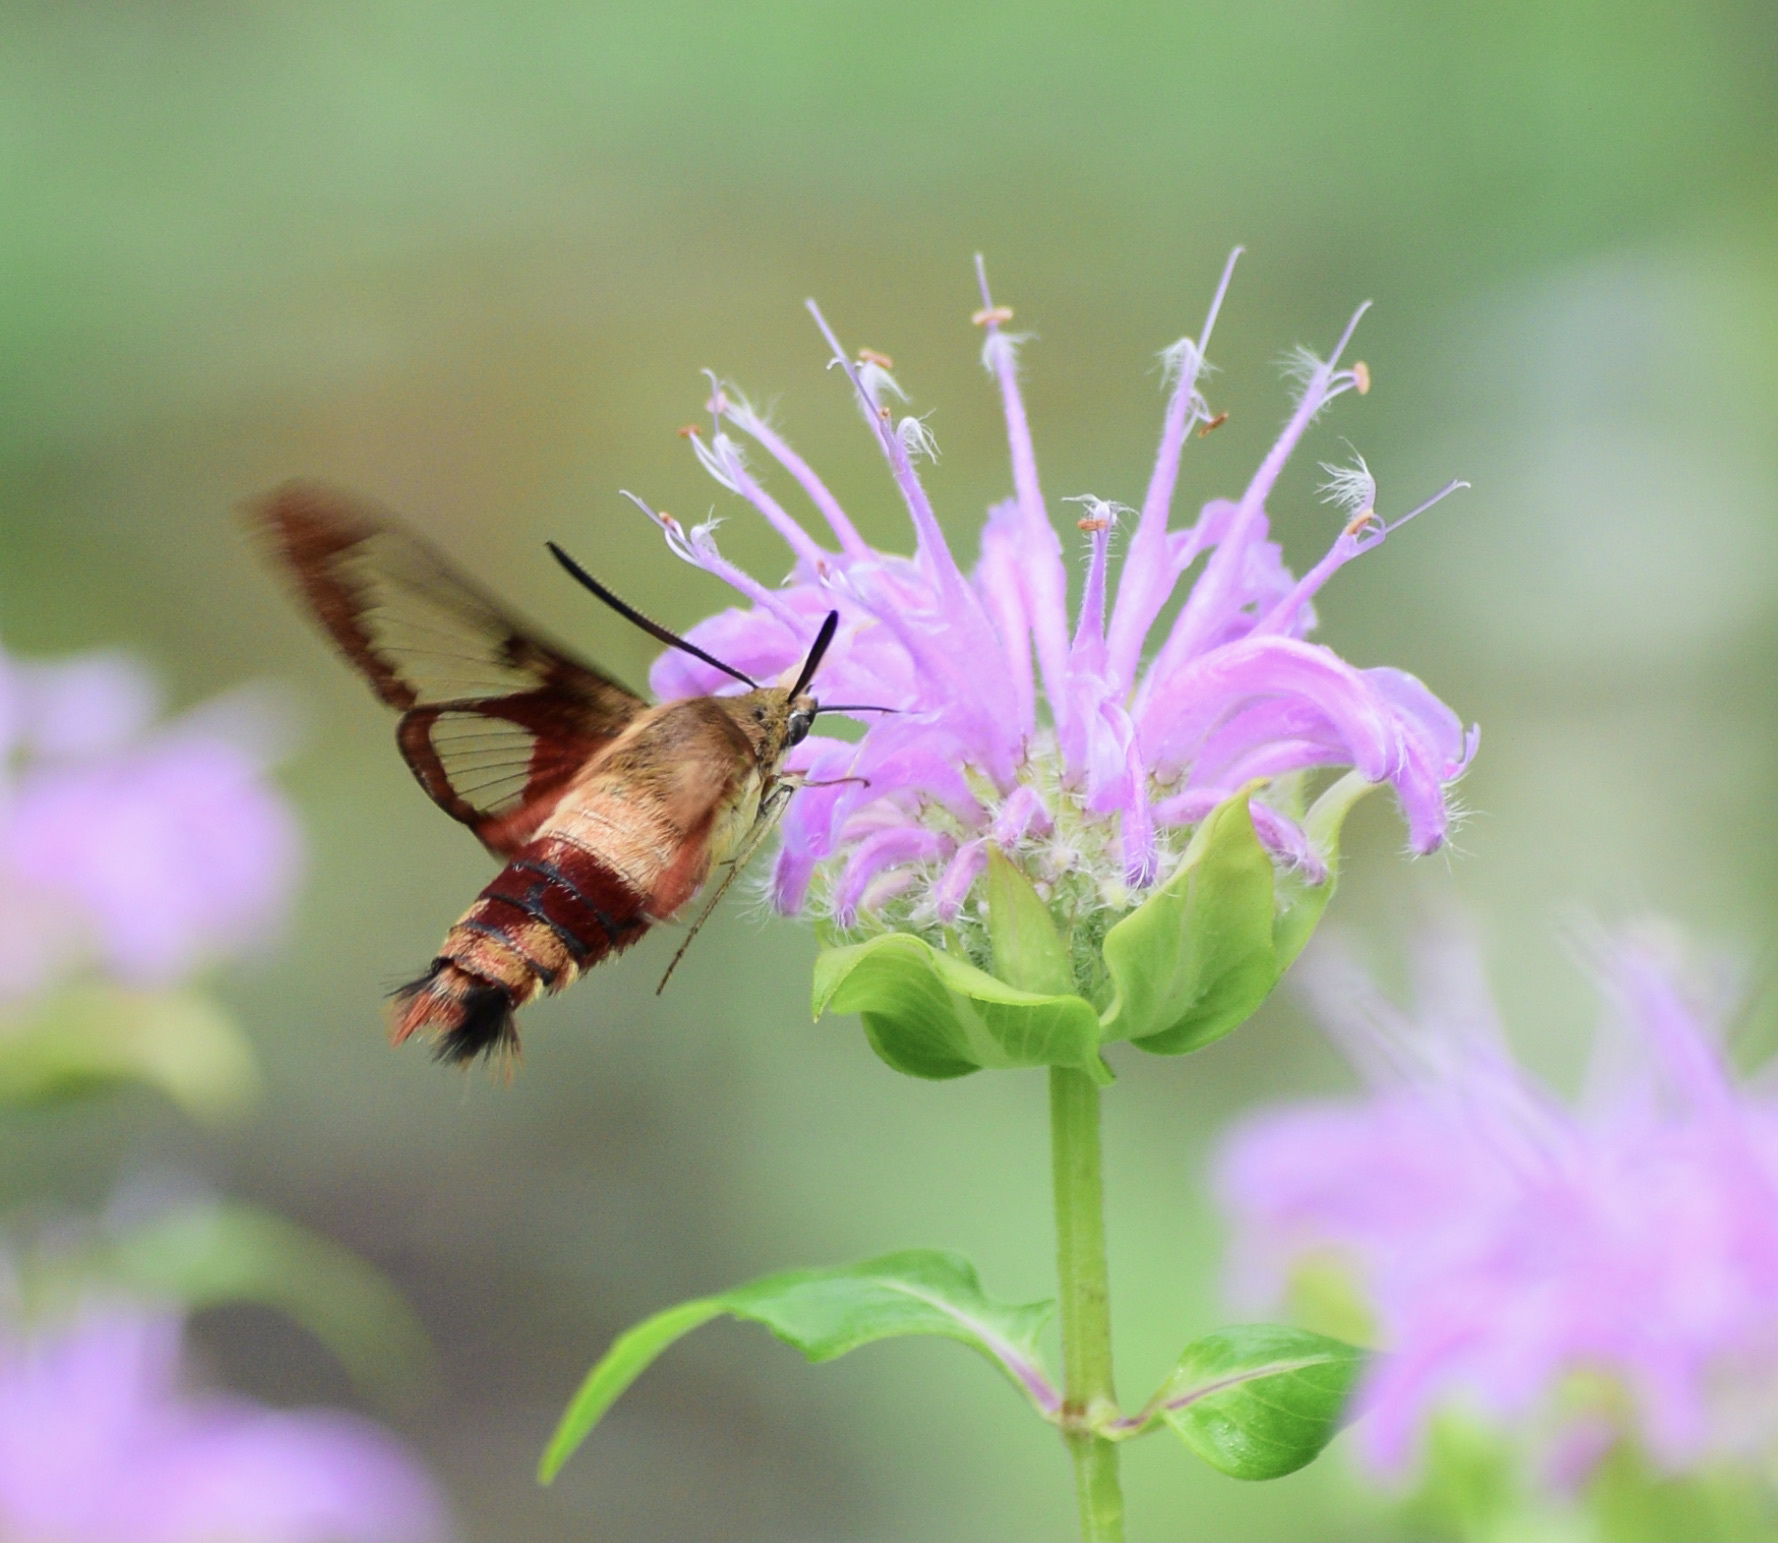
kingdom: Animalia
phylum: Arthropoda
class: Insecta
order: Lepidoptera
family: Sphingidae
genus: Hemaris
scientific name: Hemaris thysbe
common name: Common clear-wing
